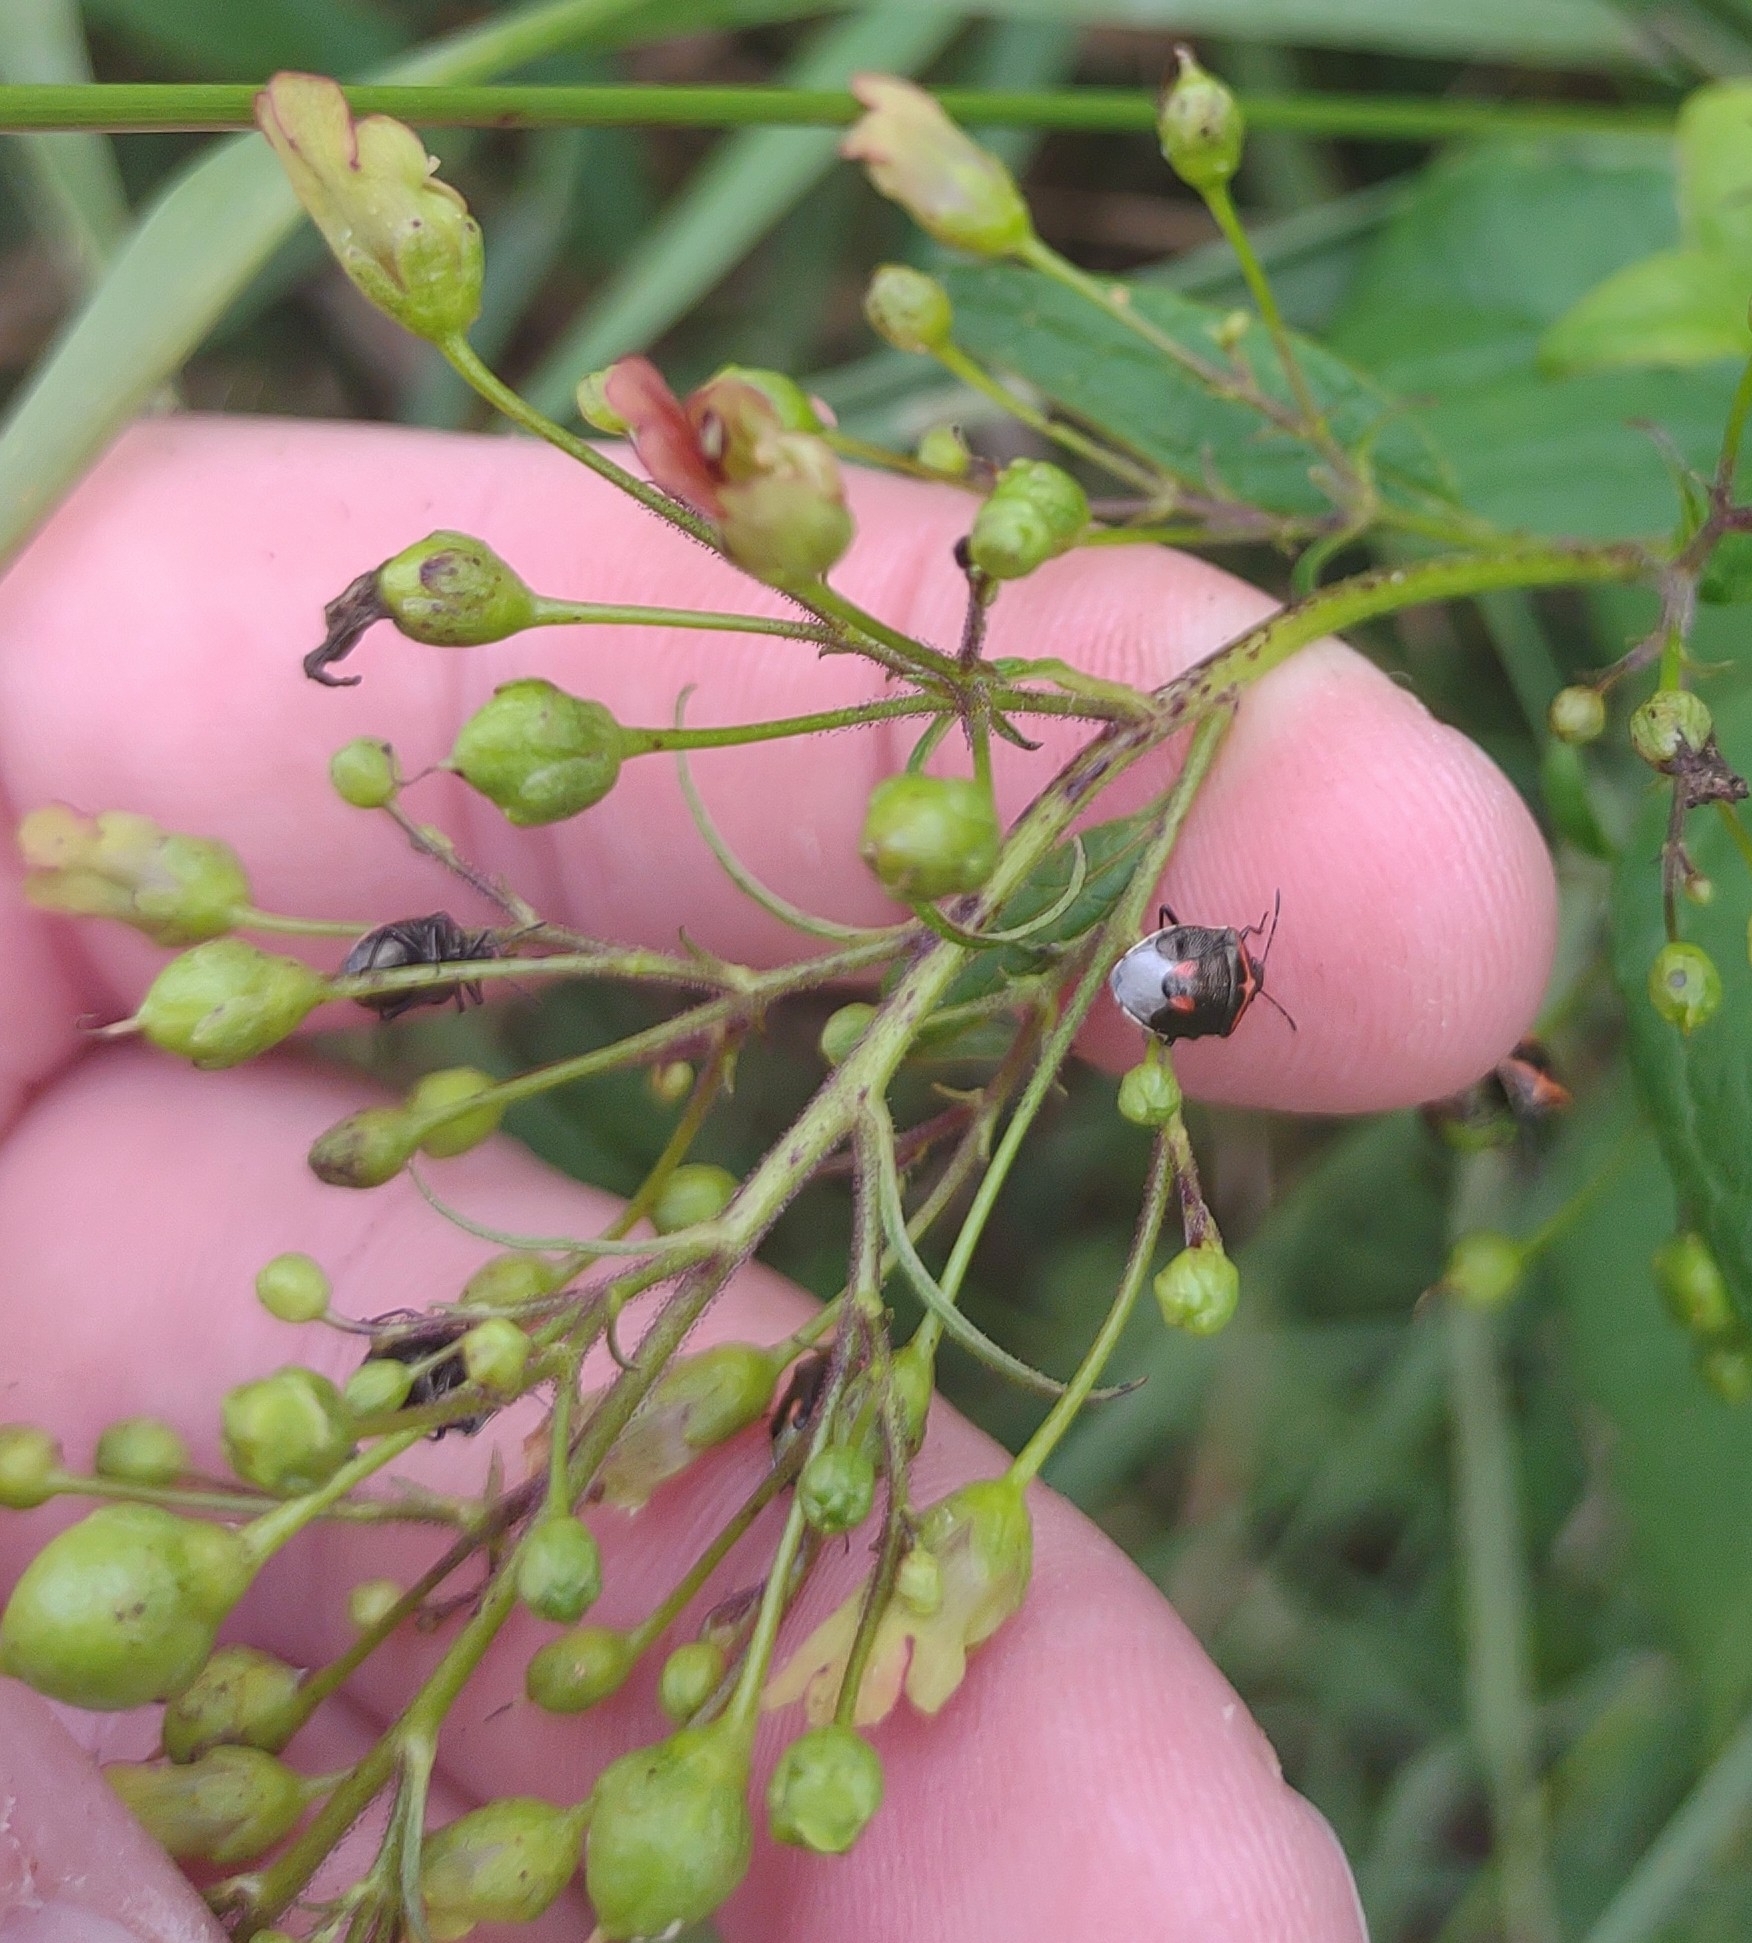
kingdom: Animalia
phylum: Arthropoda
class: Insecta
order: Hemiptera
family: Pentatomidae
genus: Cosmopepla
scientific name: Cosmopepla lintneriana
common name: Twice-stabbed stink bug
